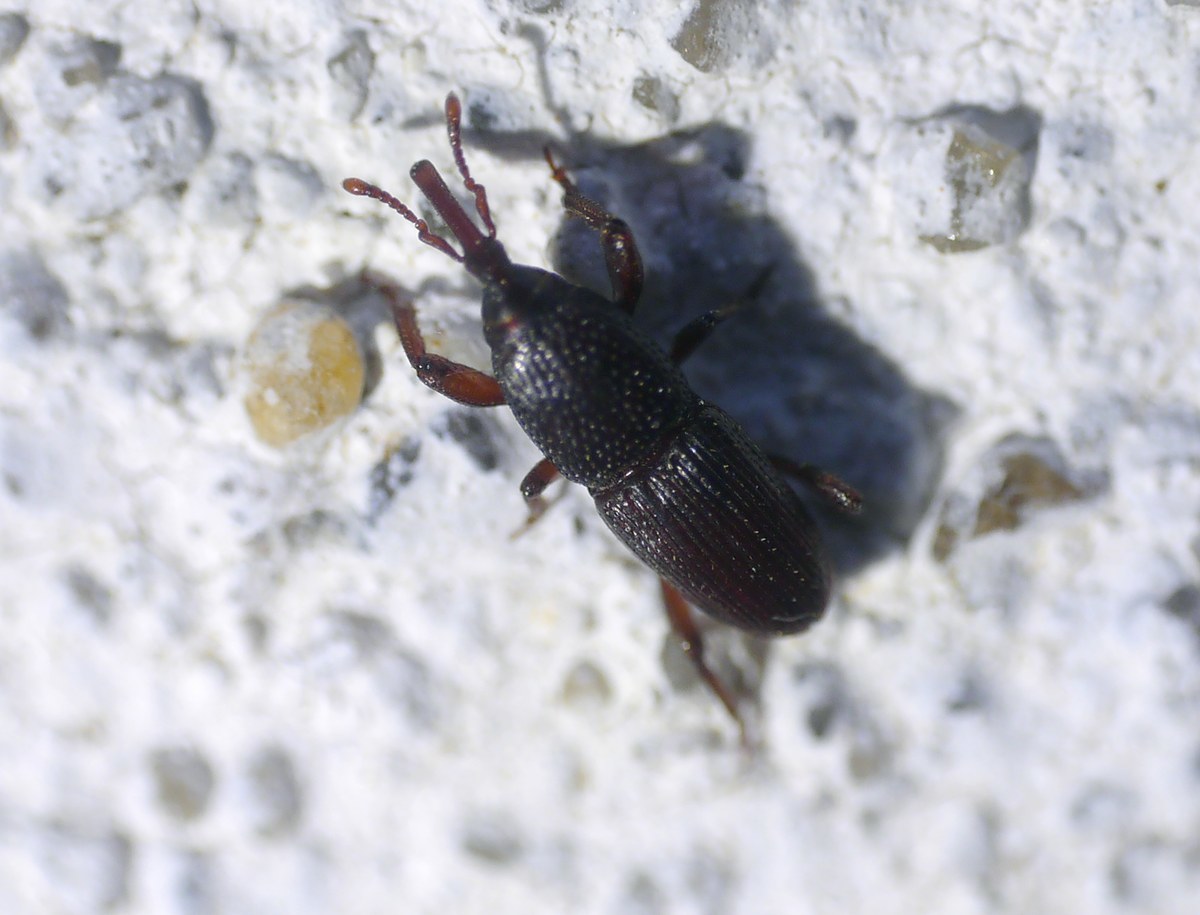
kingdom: Animalia
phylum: Arthropoda
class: Insecta
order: Coleoptera
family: Dryophthoridae
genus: Sitophilus
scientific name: Sitophilus granarius
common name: Granary weevil
